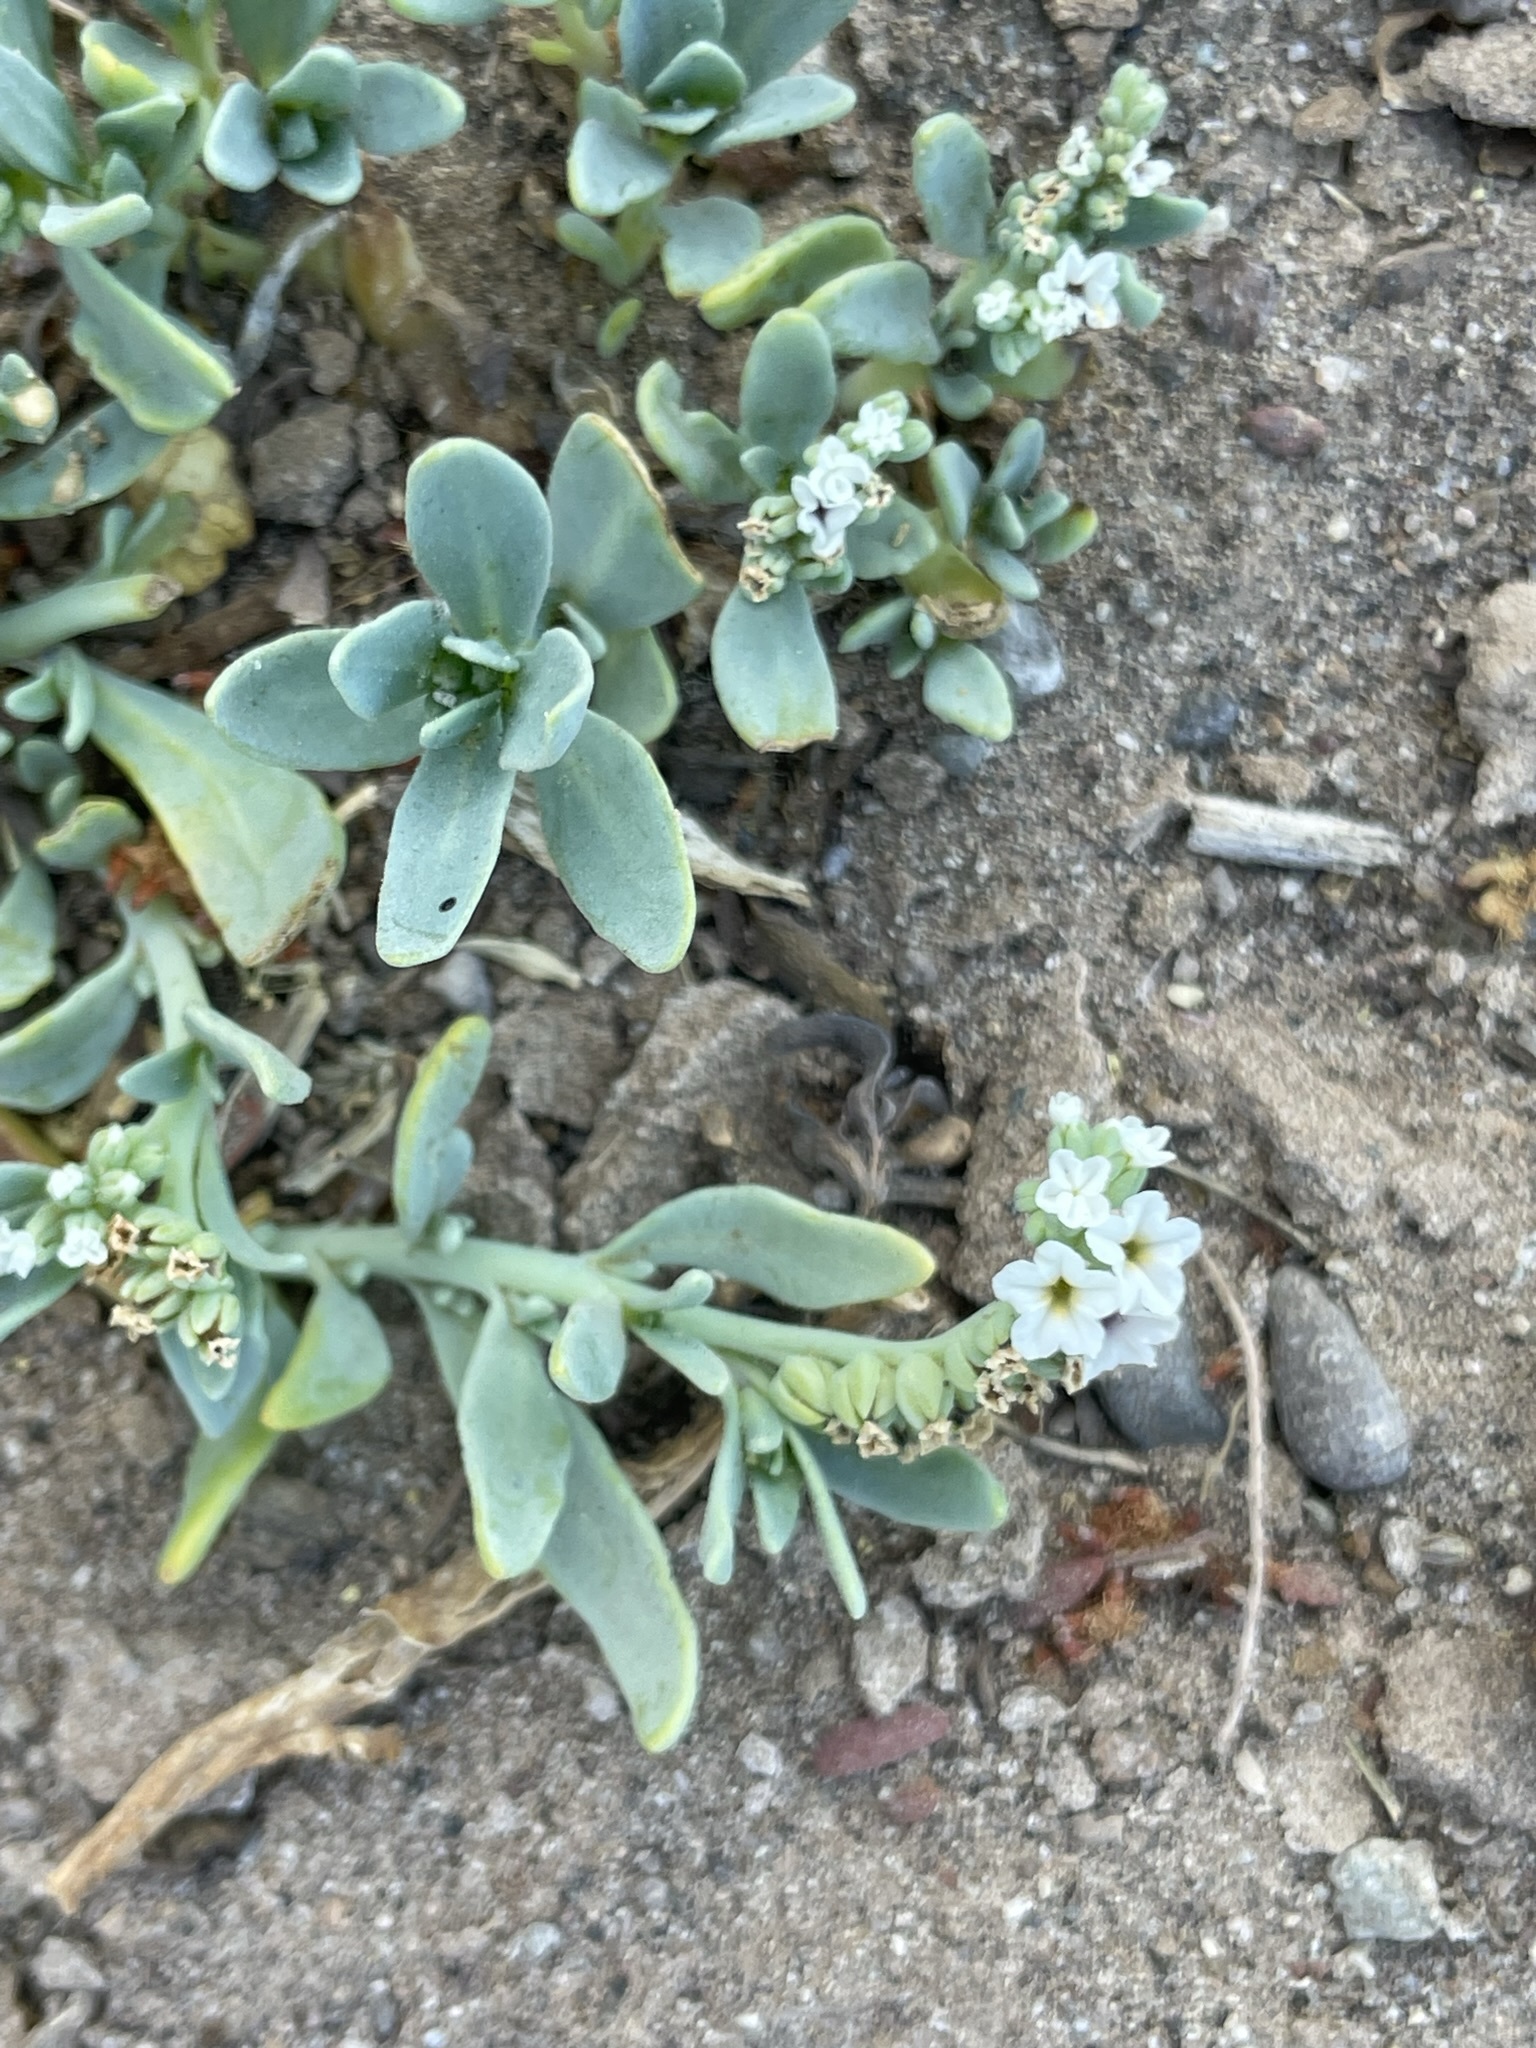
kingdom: Plantae
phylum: Tracheophyta
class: Magnoliopsida
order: Boraginales
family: Heliotropiaceae
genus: Heliotropium
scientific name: Heliotropium curassavicum
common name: Seaside heliotrope
